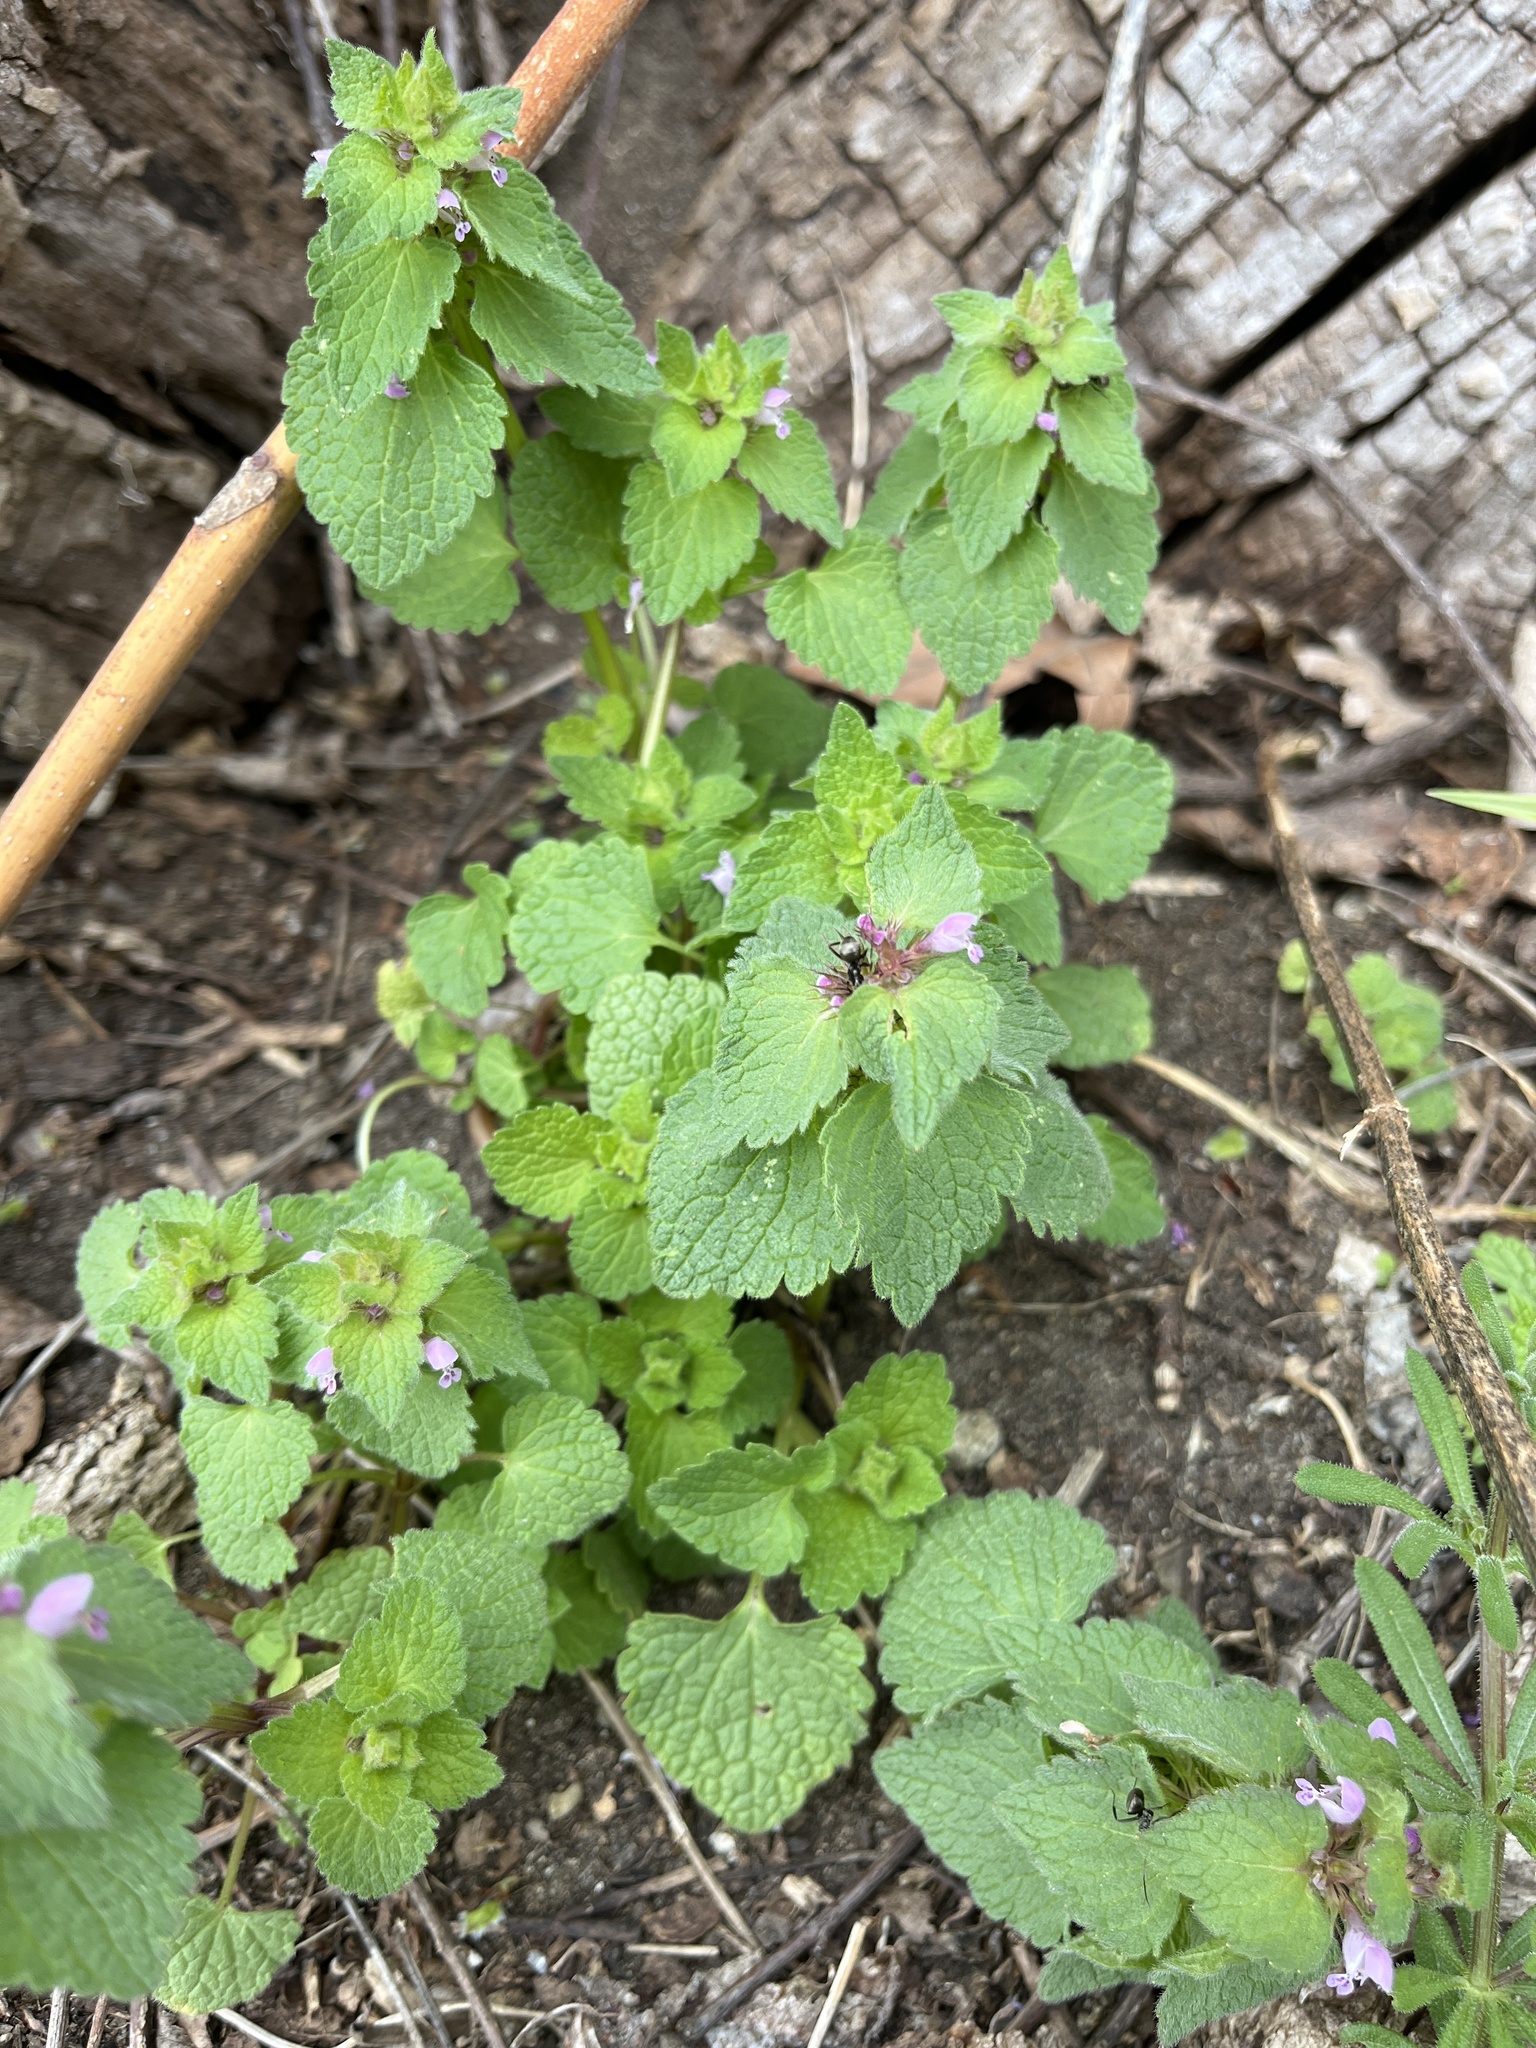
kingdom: Plantae
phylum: Tracheophyta
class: Magnoliopsida
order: Lamiales
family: Lamiaceae
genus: Lamium
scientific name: Lamium purpureum
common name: Red dead-nettle
